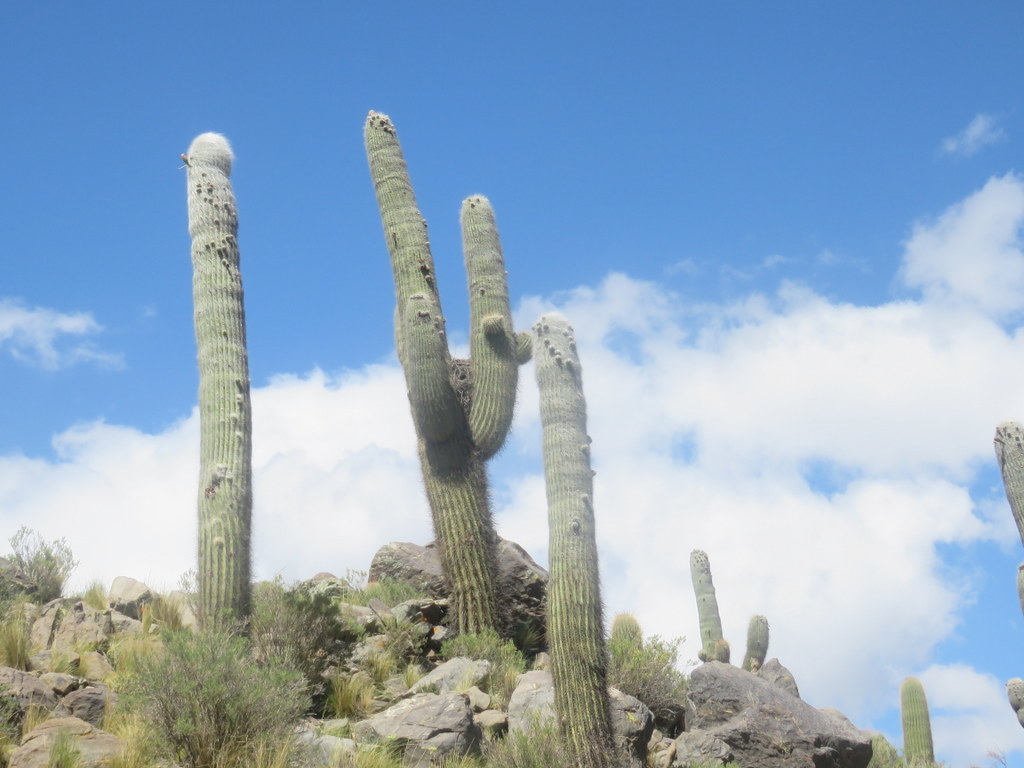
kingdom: Plantae
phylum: Tracheophyta
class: Magnoliopsida
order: Caryophyllales
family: Cactaceae
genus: Leucostele
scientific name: Leucostele atacamensis
